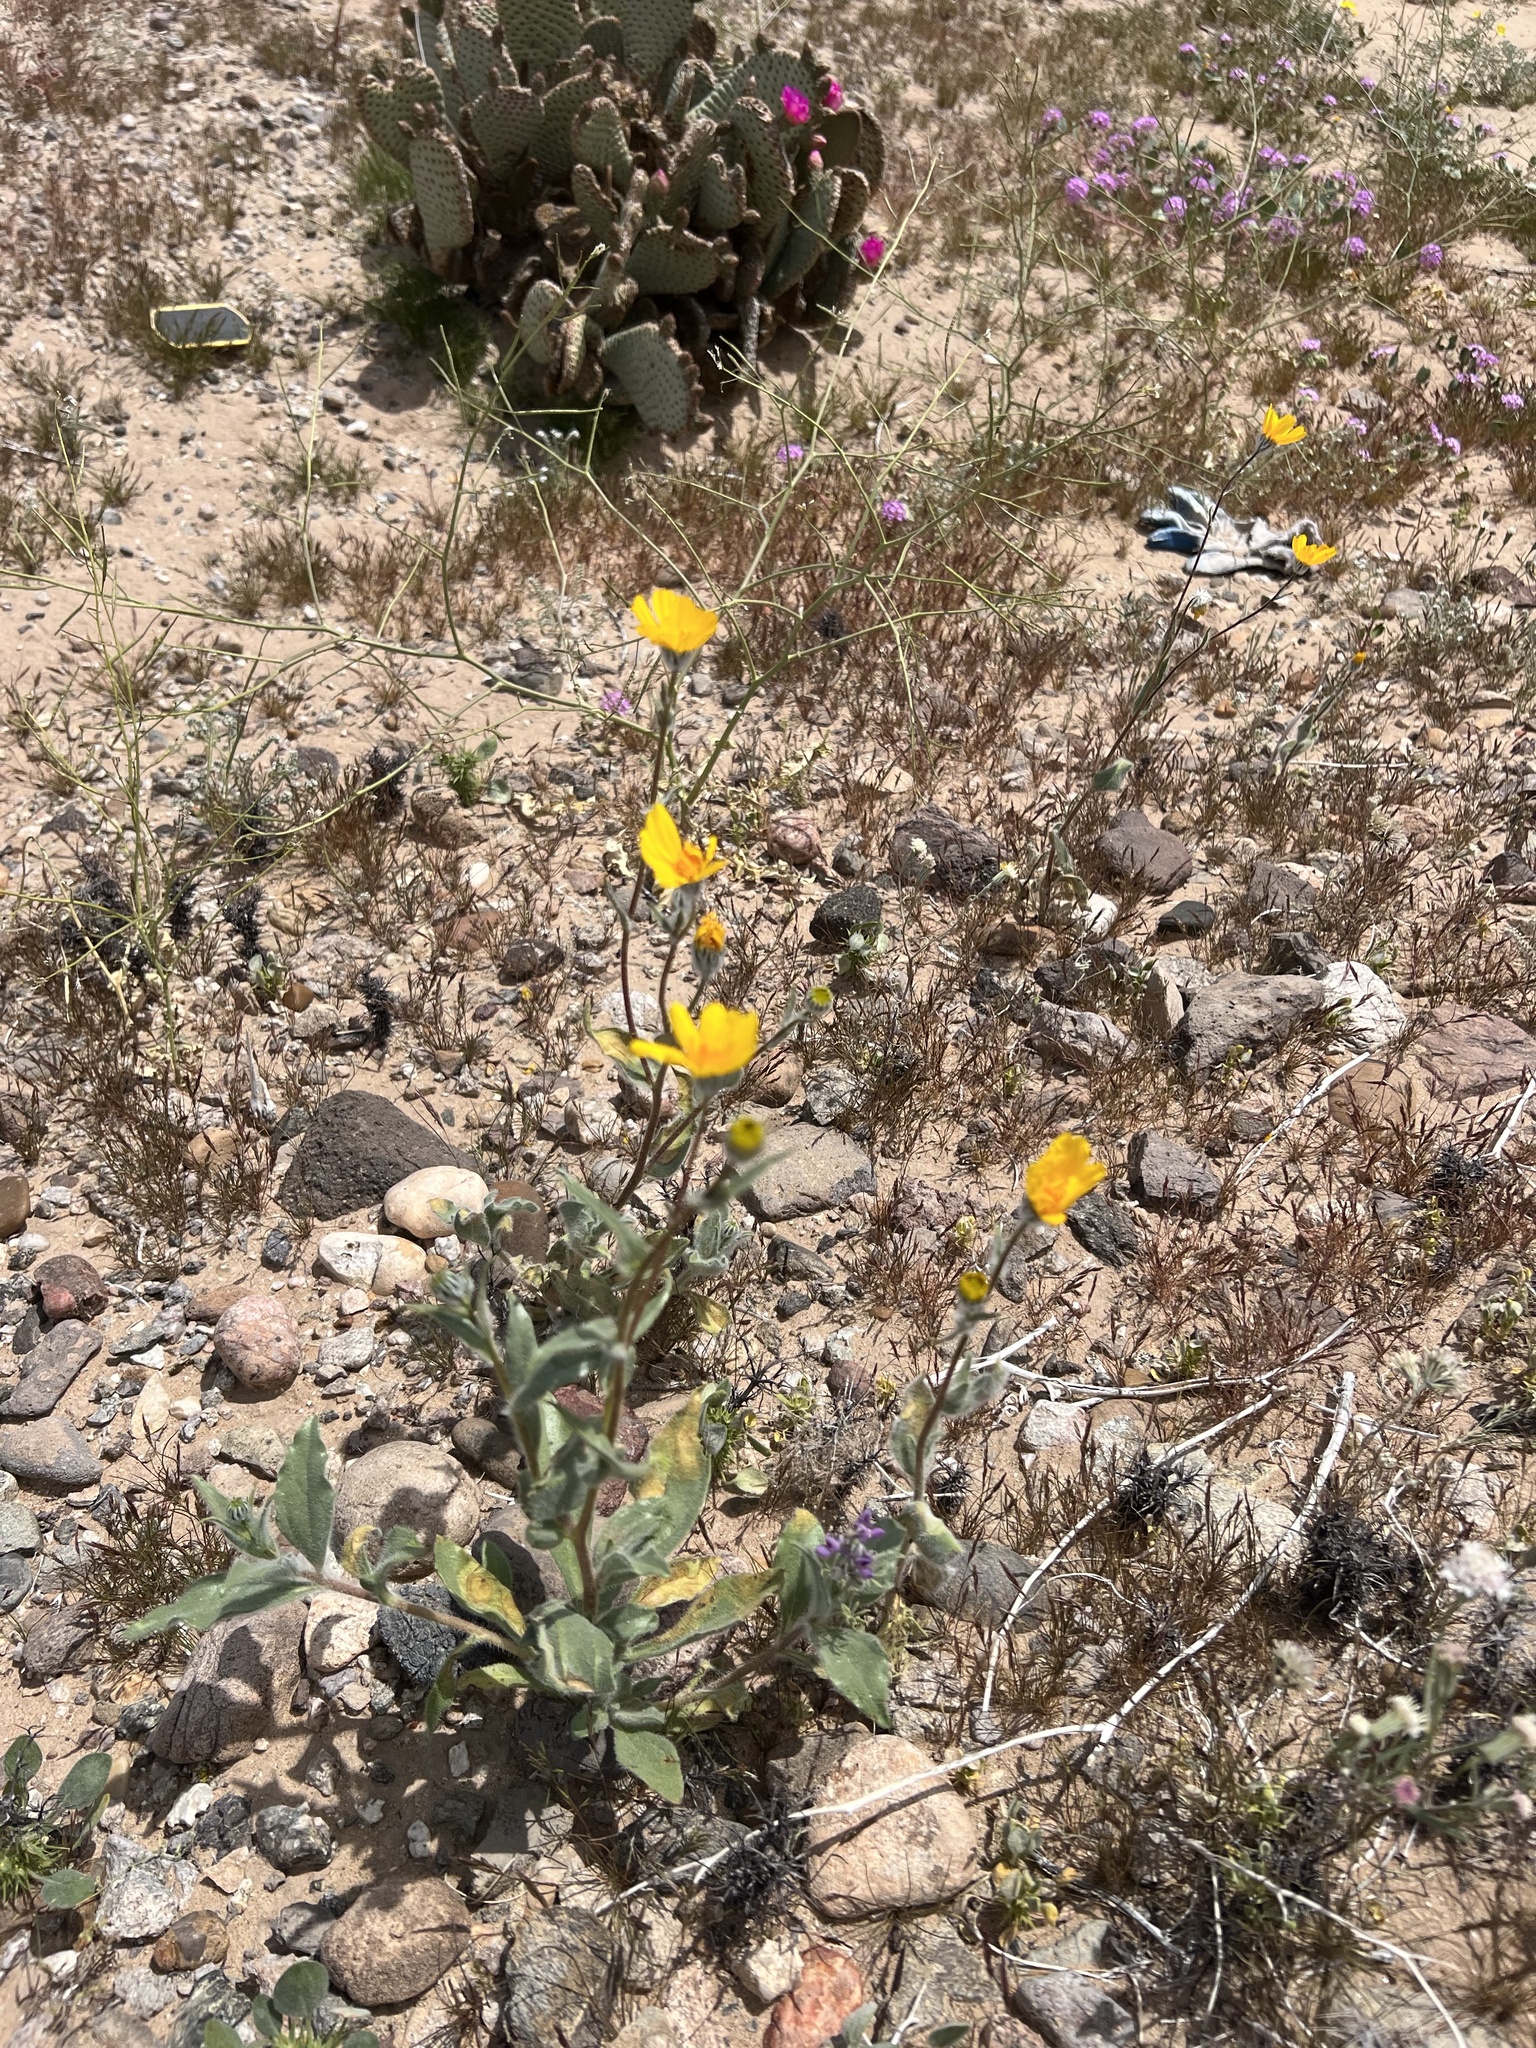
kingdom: Plantae
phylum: Tracheophyta
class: Magnoliopsida
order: Asterales
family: Asteraceae
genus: Geraea
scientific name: Geraea canescens
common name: Desert-gold
